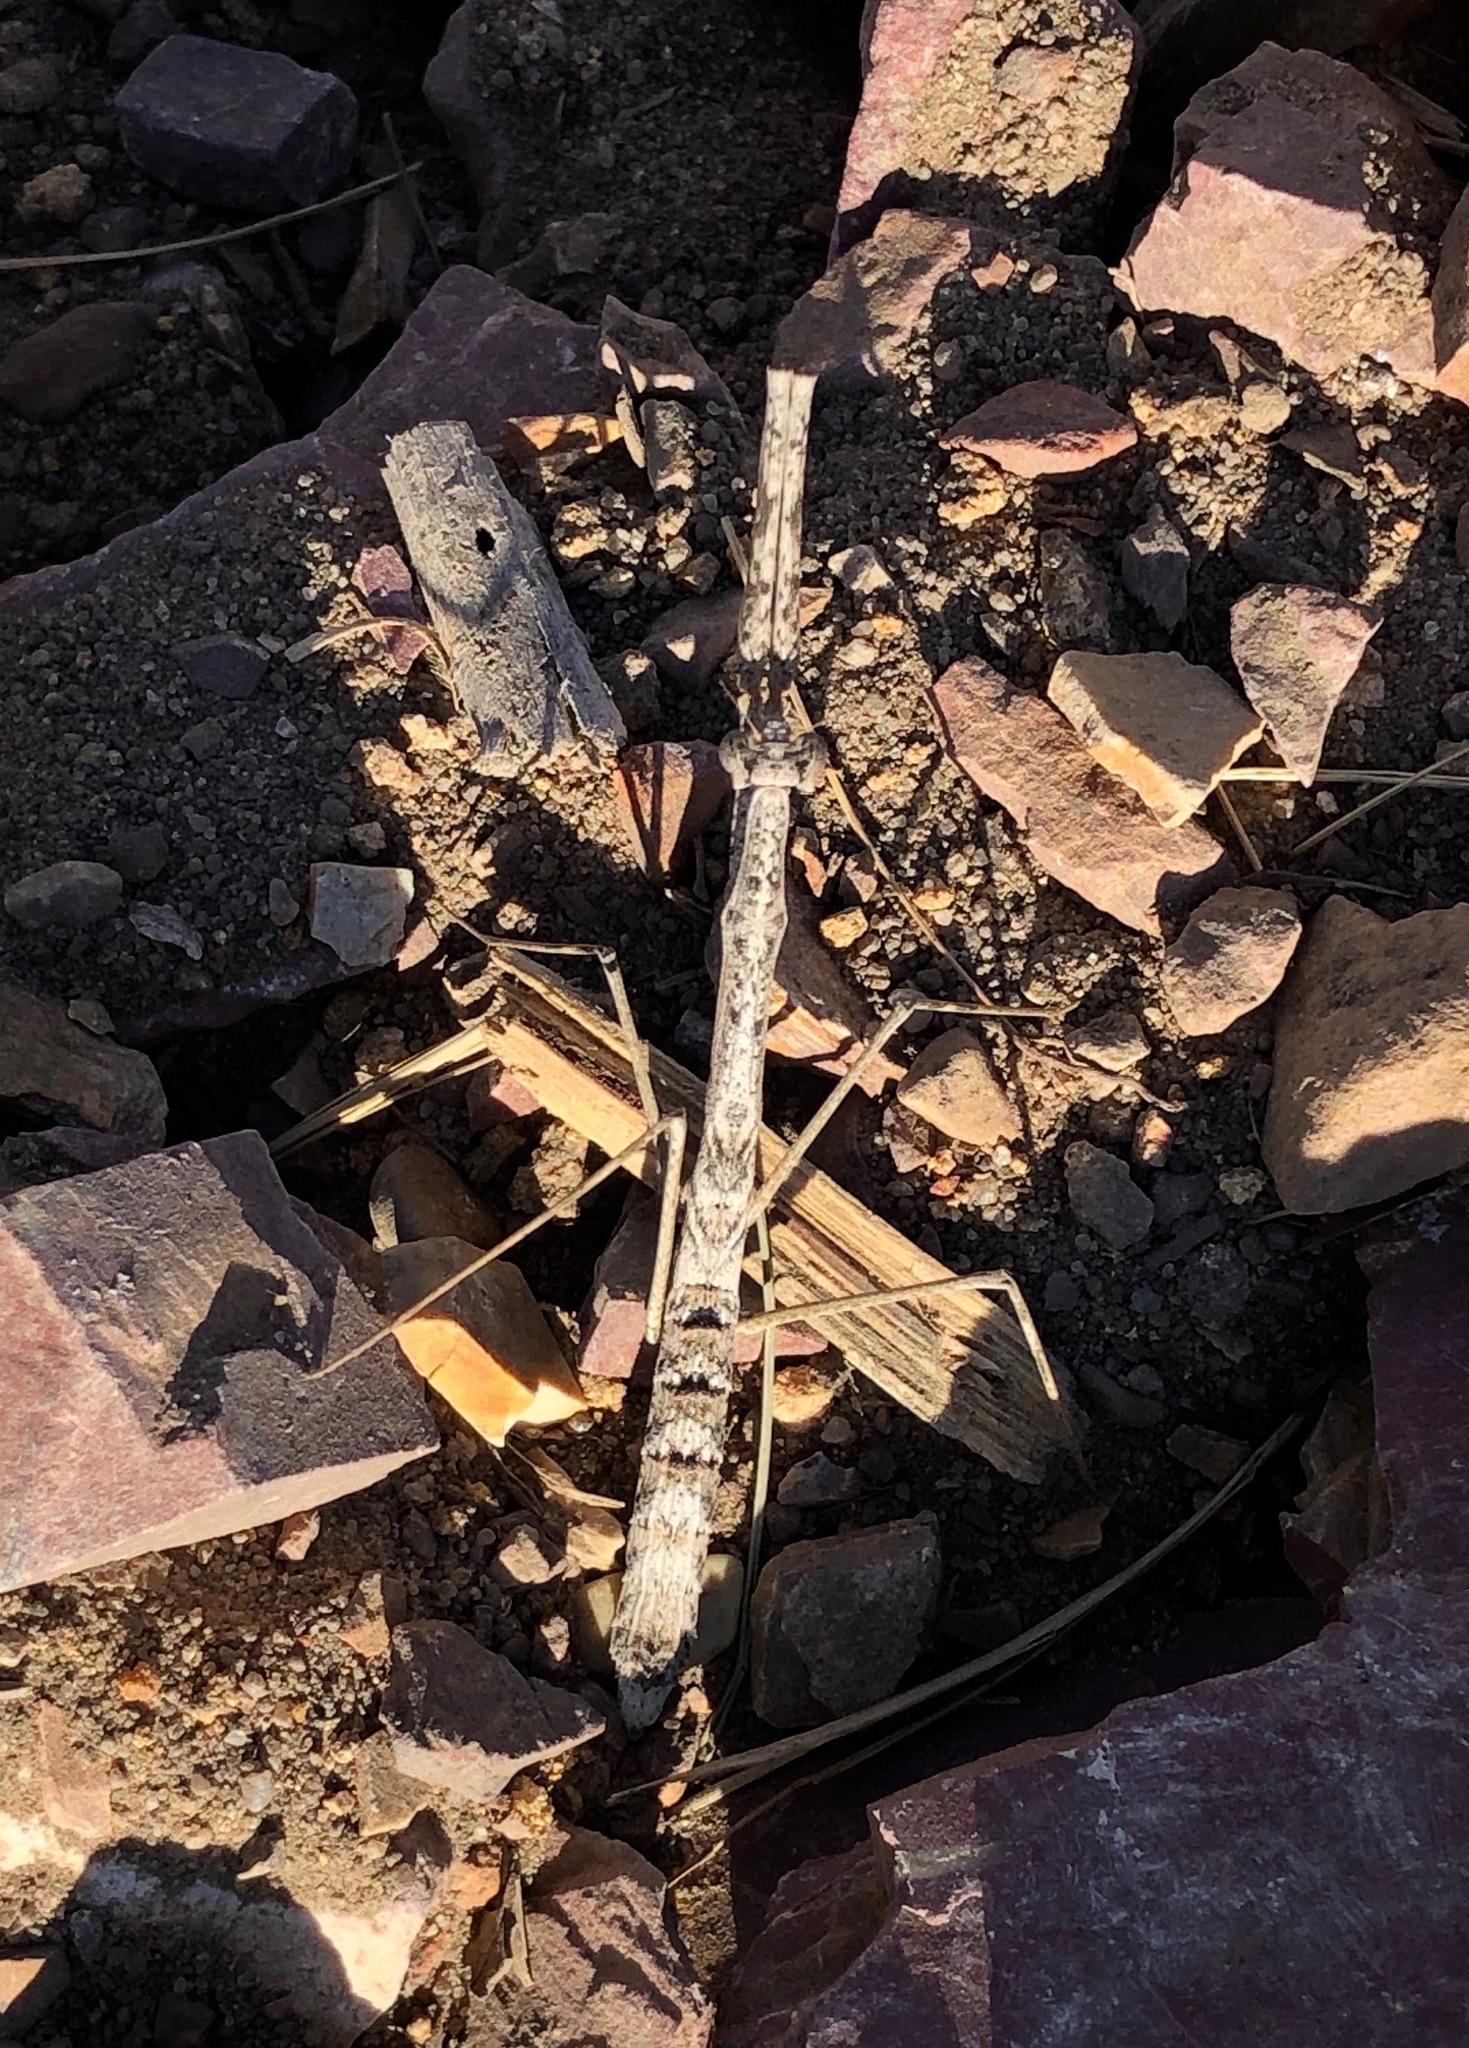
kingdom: Animalia
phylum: Arthropoda
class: Insecta
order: Mantodea
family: Hoplocoryphidae
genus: Hoplocorypha
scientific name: Hoplocorypha foliata
